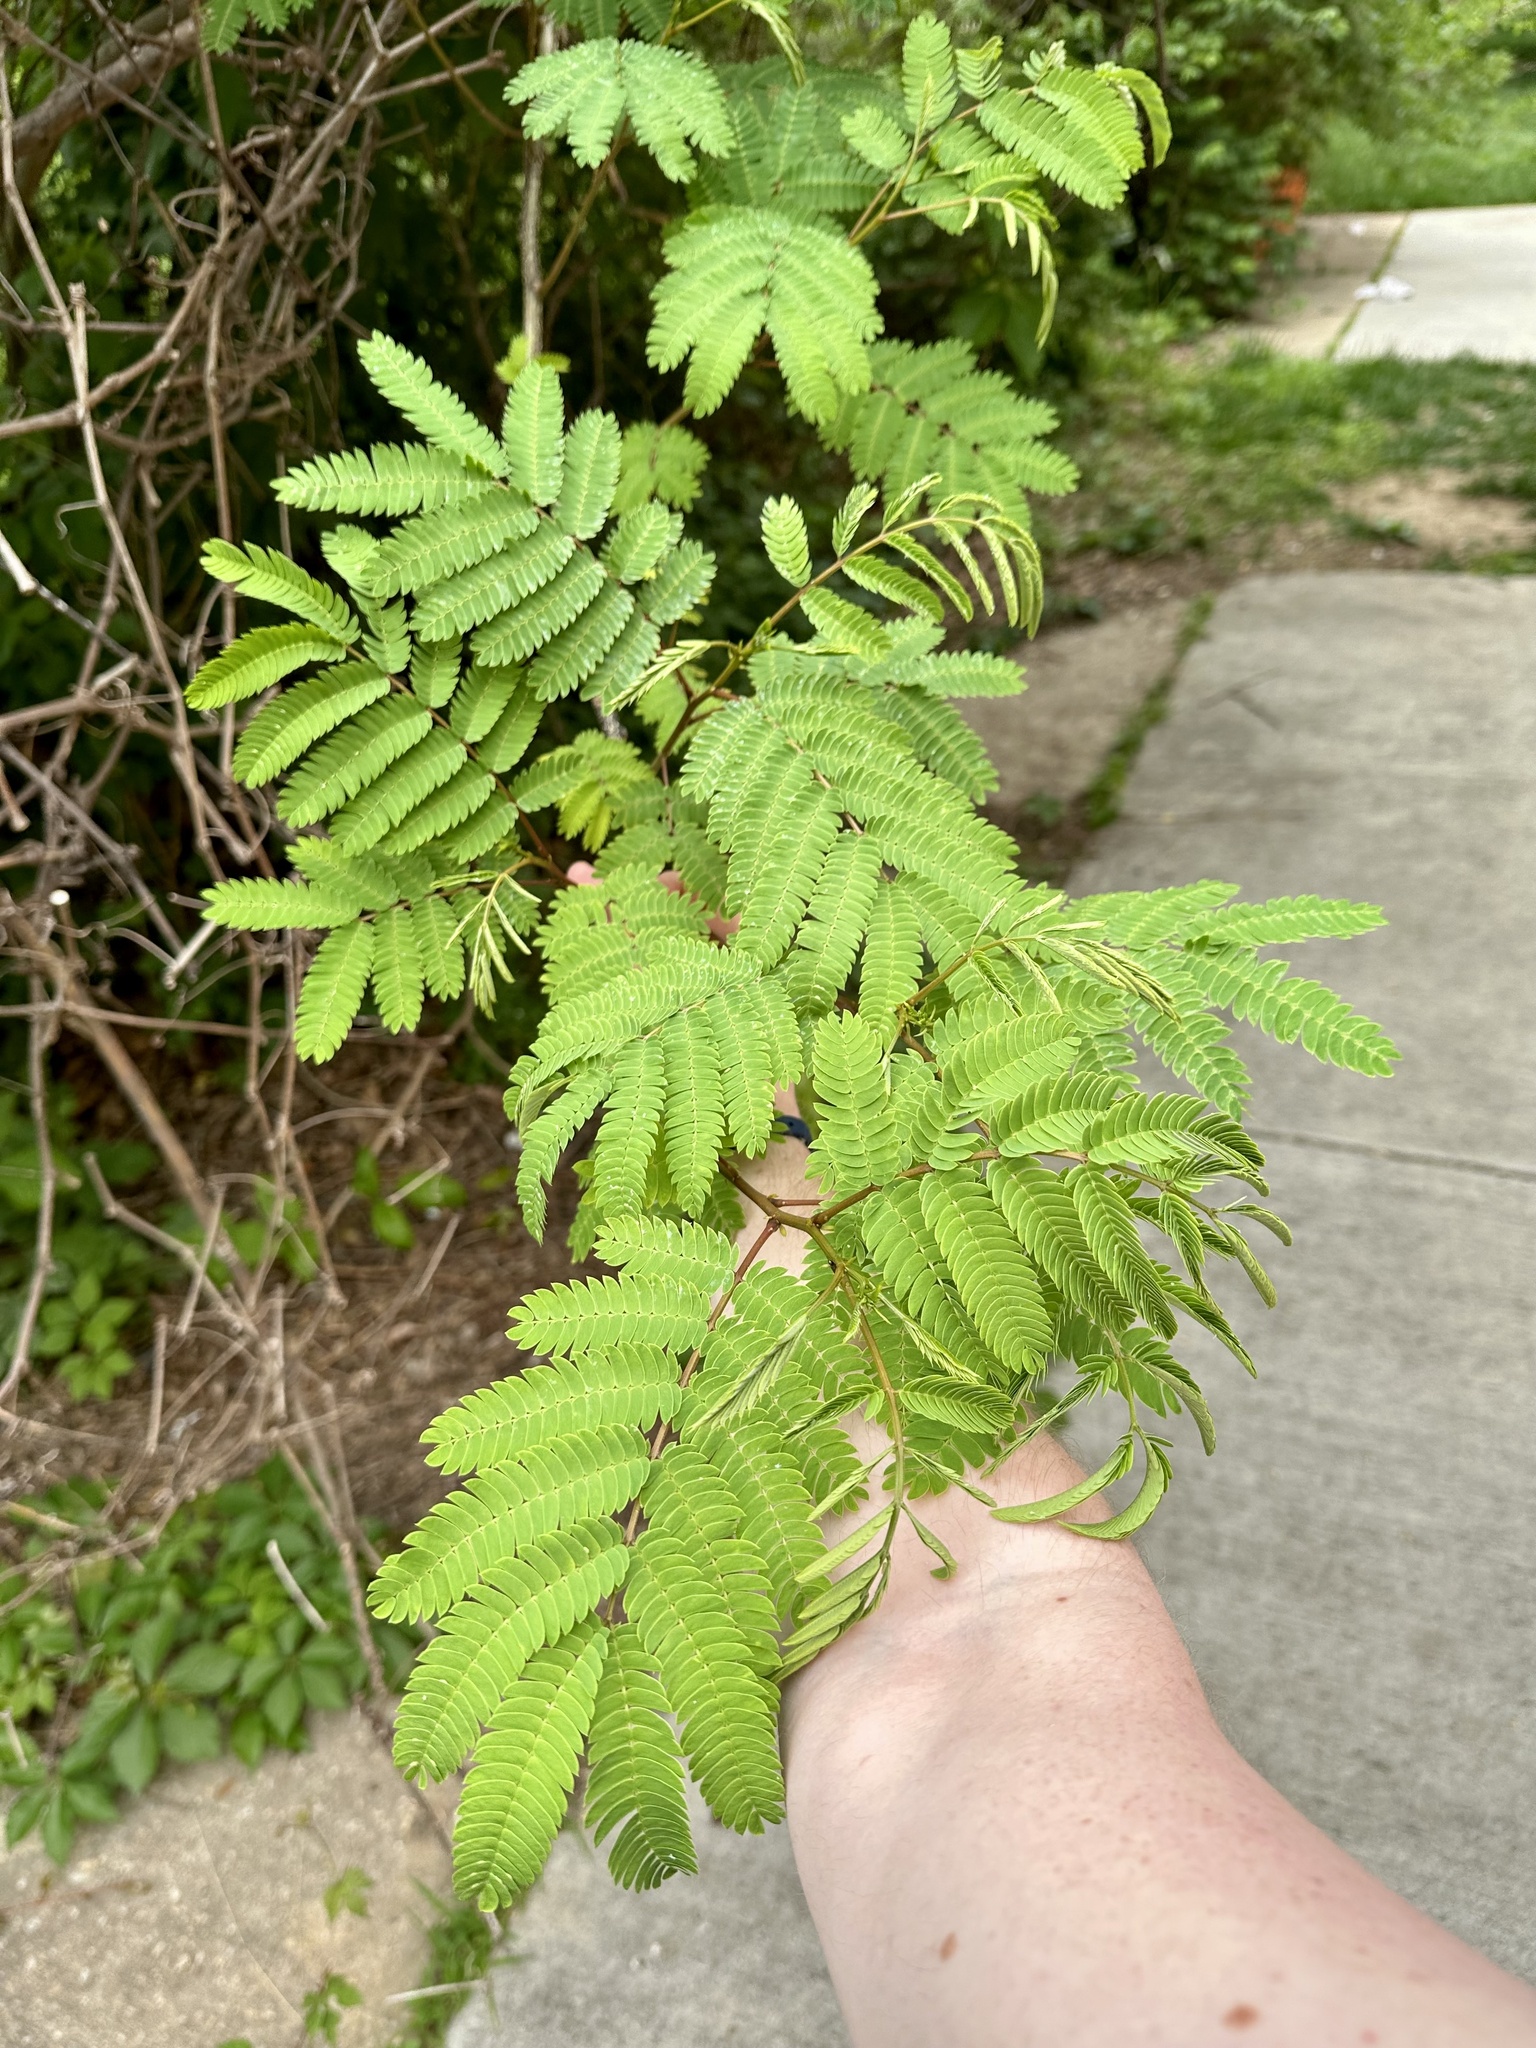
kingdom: Plantae
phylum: Tracheophyta
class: Magnoliopsida
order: Fabales
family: Fabaceae
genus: Albizia
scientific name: Albizia julibrissin
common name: Silktree
